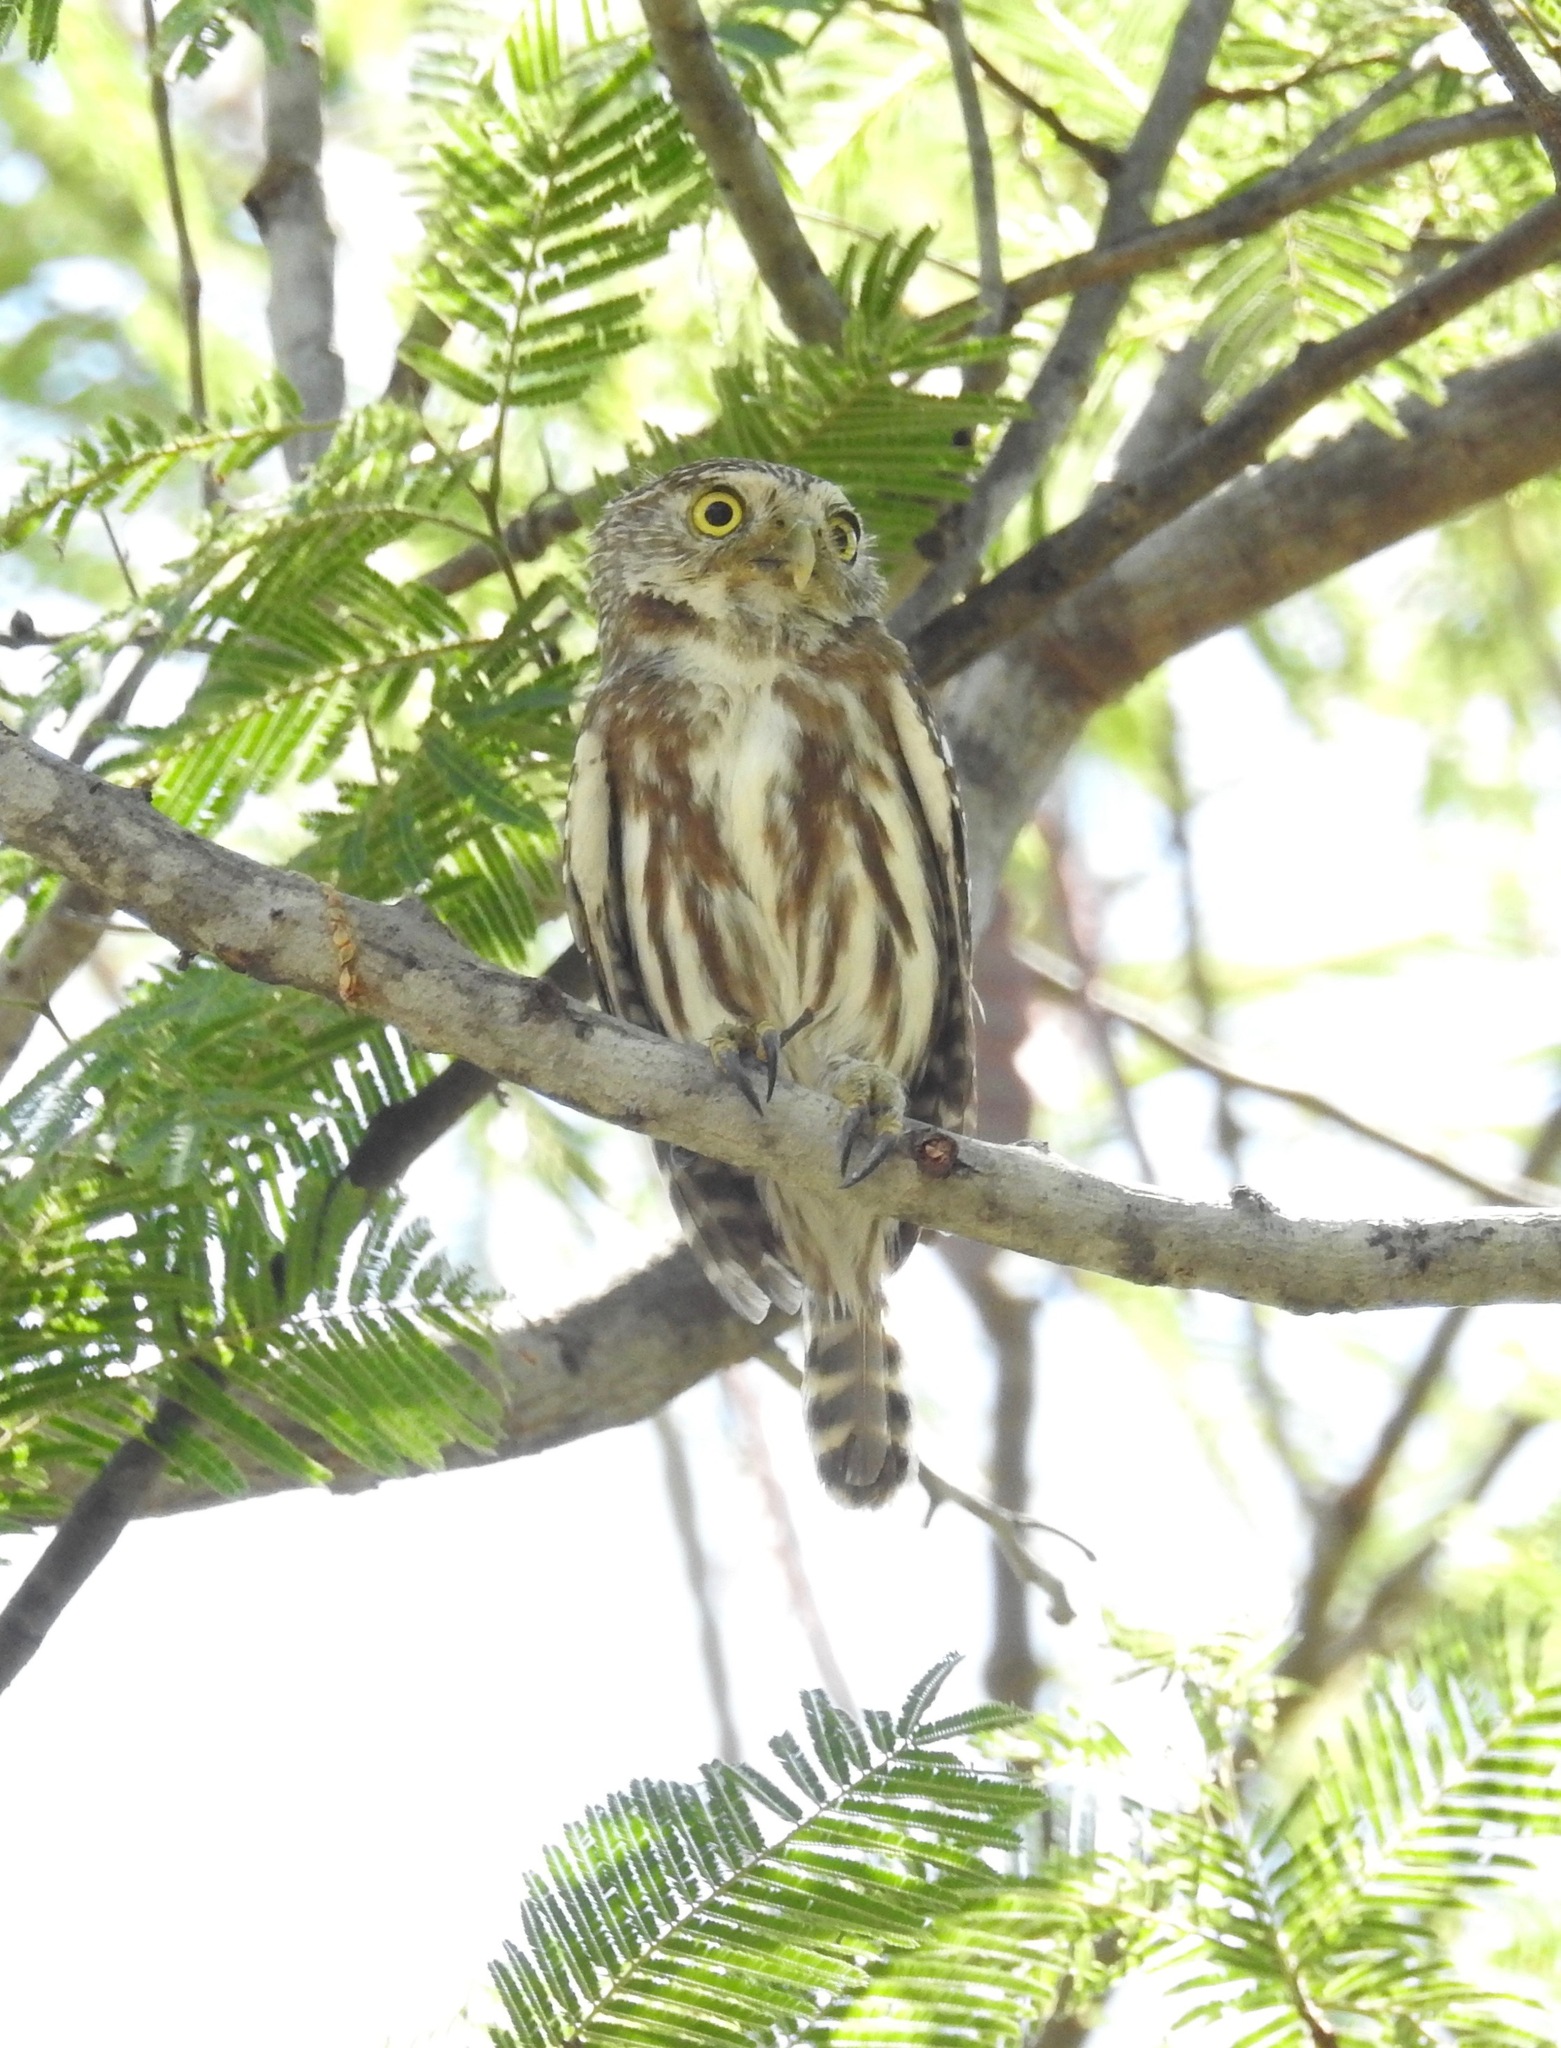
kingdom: Animalia
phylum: Chordata
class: Aves
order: Strigiformes
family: Strigidae
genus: Glaucidium
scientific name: Glaucidium brasilianum
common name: Ferruginous pygmy-owl
